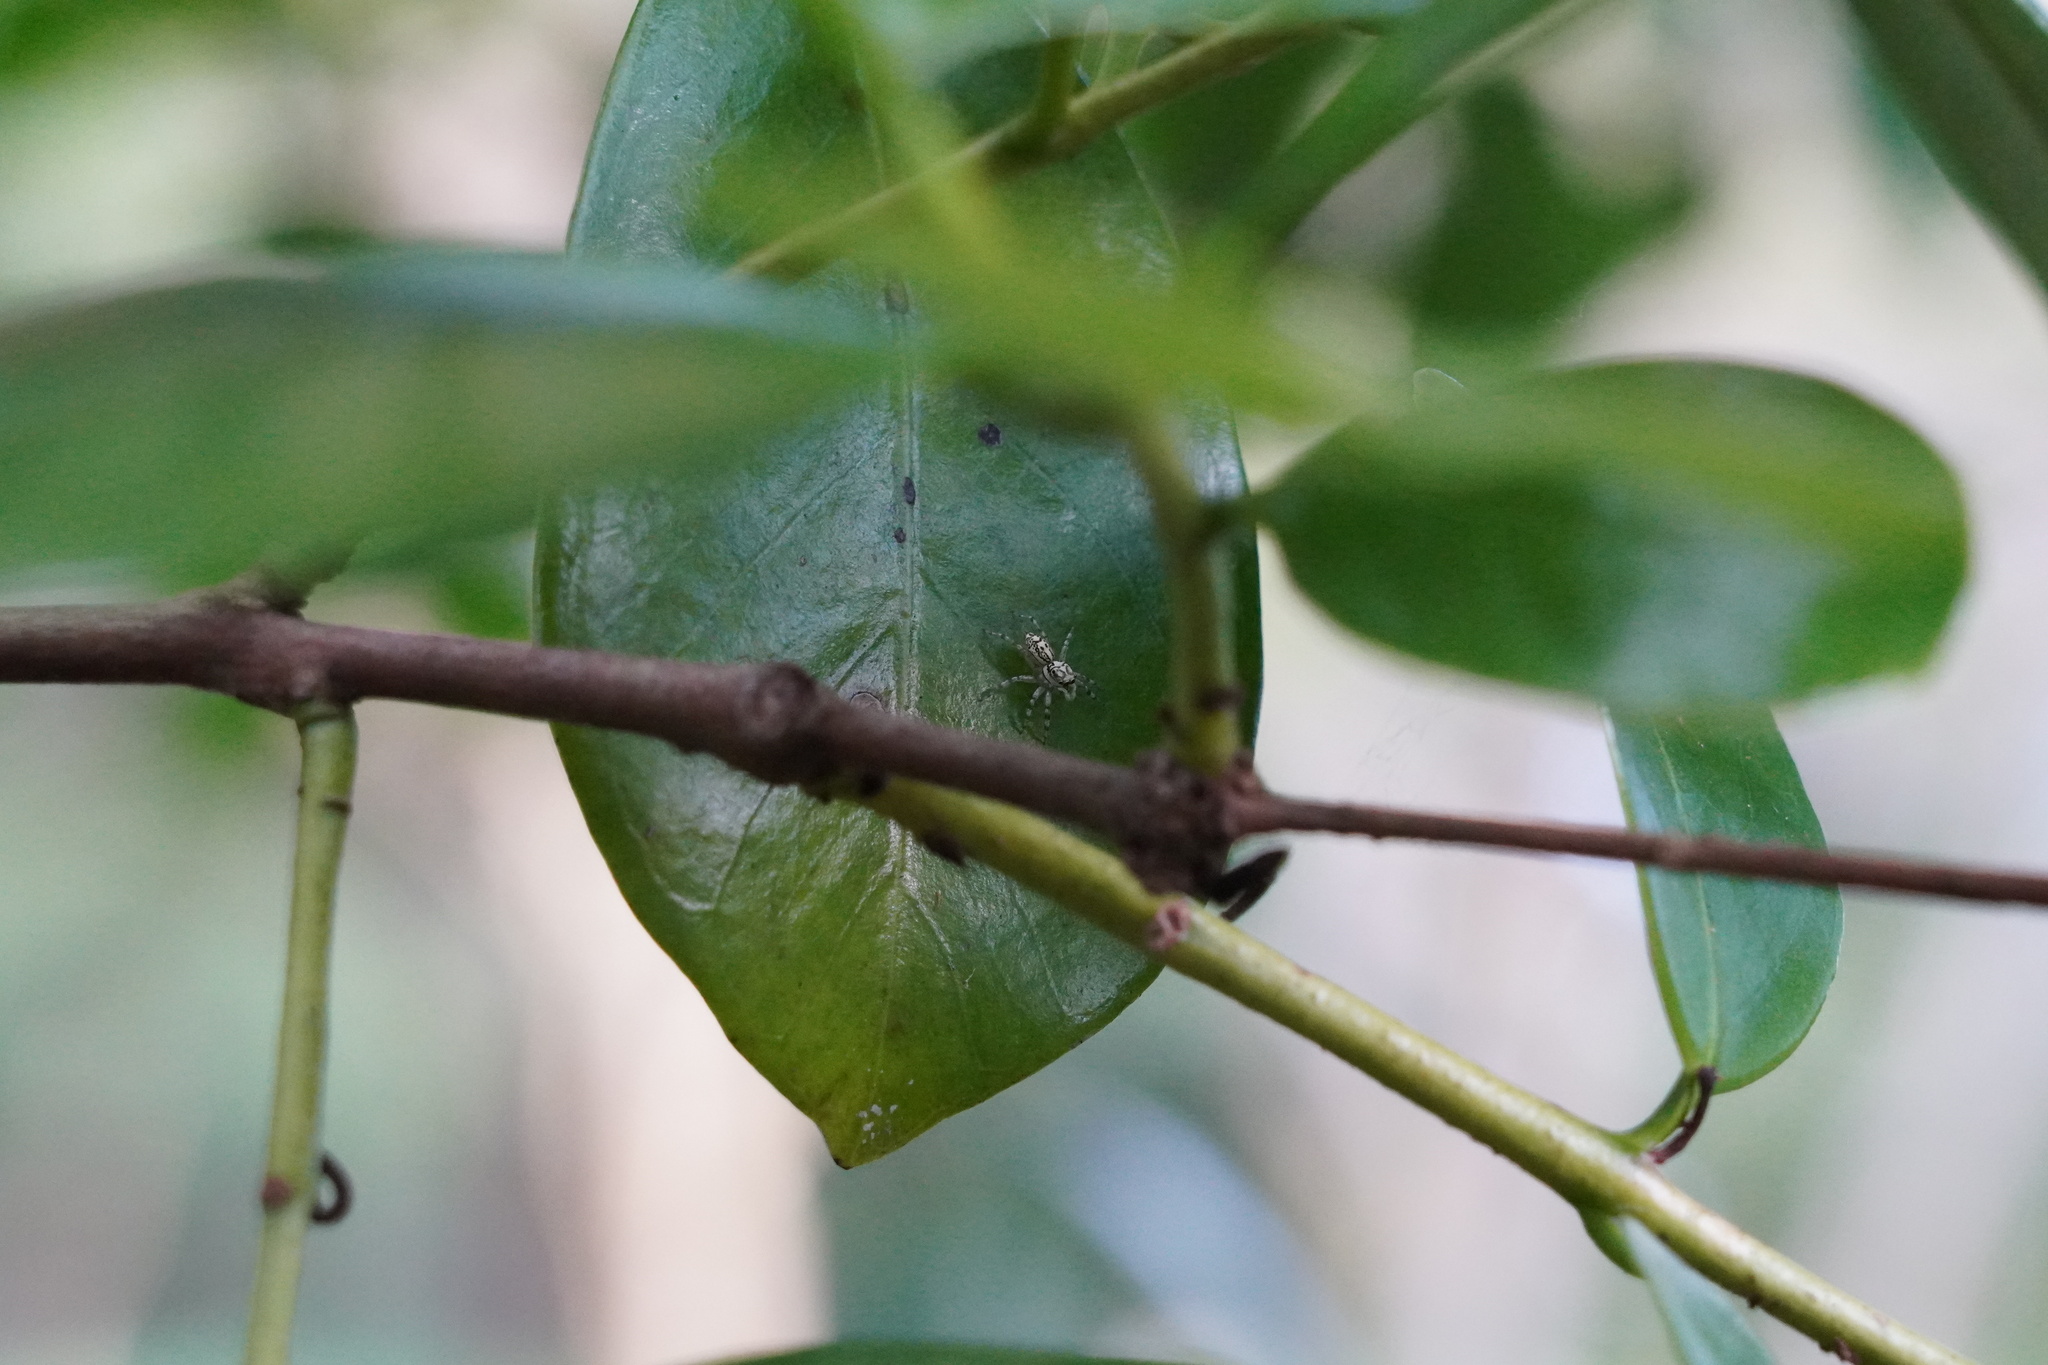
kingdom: Animalia
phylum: Arthropoda
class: Arachnida
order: Araneae
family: Salticidae
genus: Phintelloides
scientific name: Phintelloides versicolor
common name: Jumping spider
